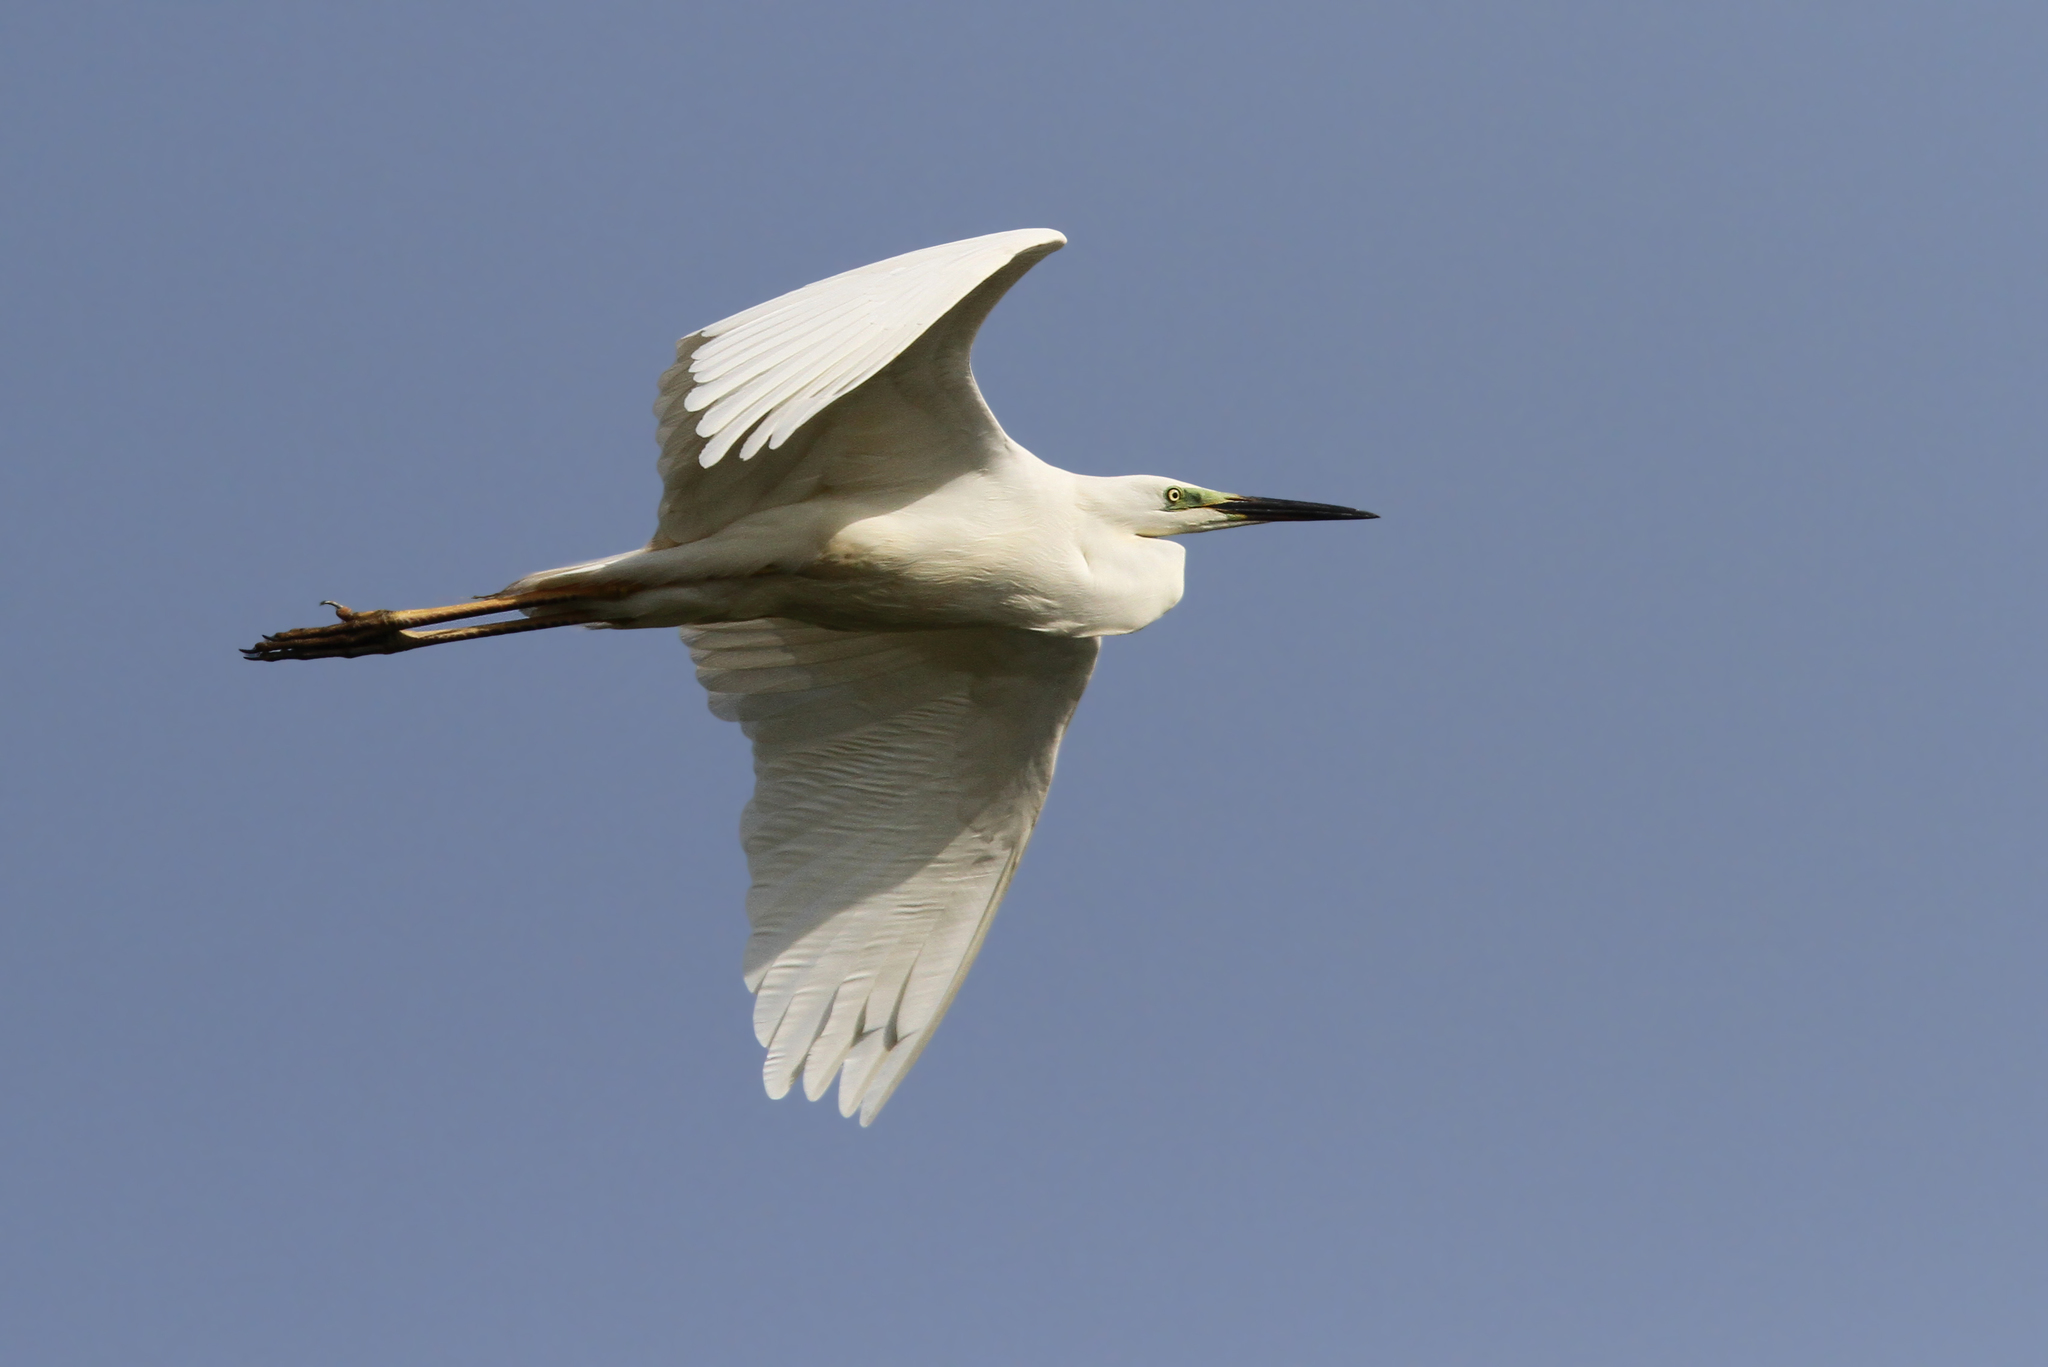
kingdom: Animalia
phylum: Chordata
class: Aves
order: Pelecaniformes
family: Ardeidae
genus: Ardea
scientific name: Ardea alba
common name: Great egret
